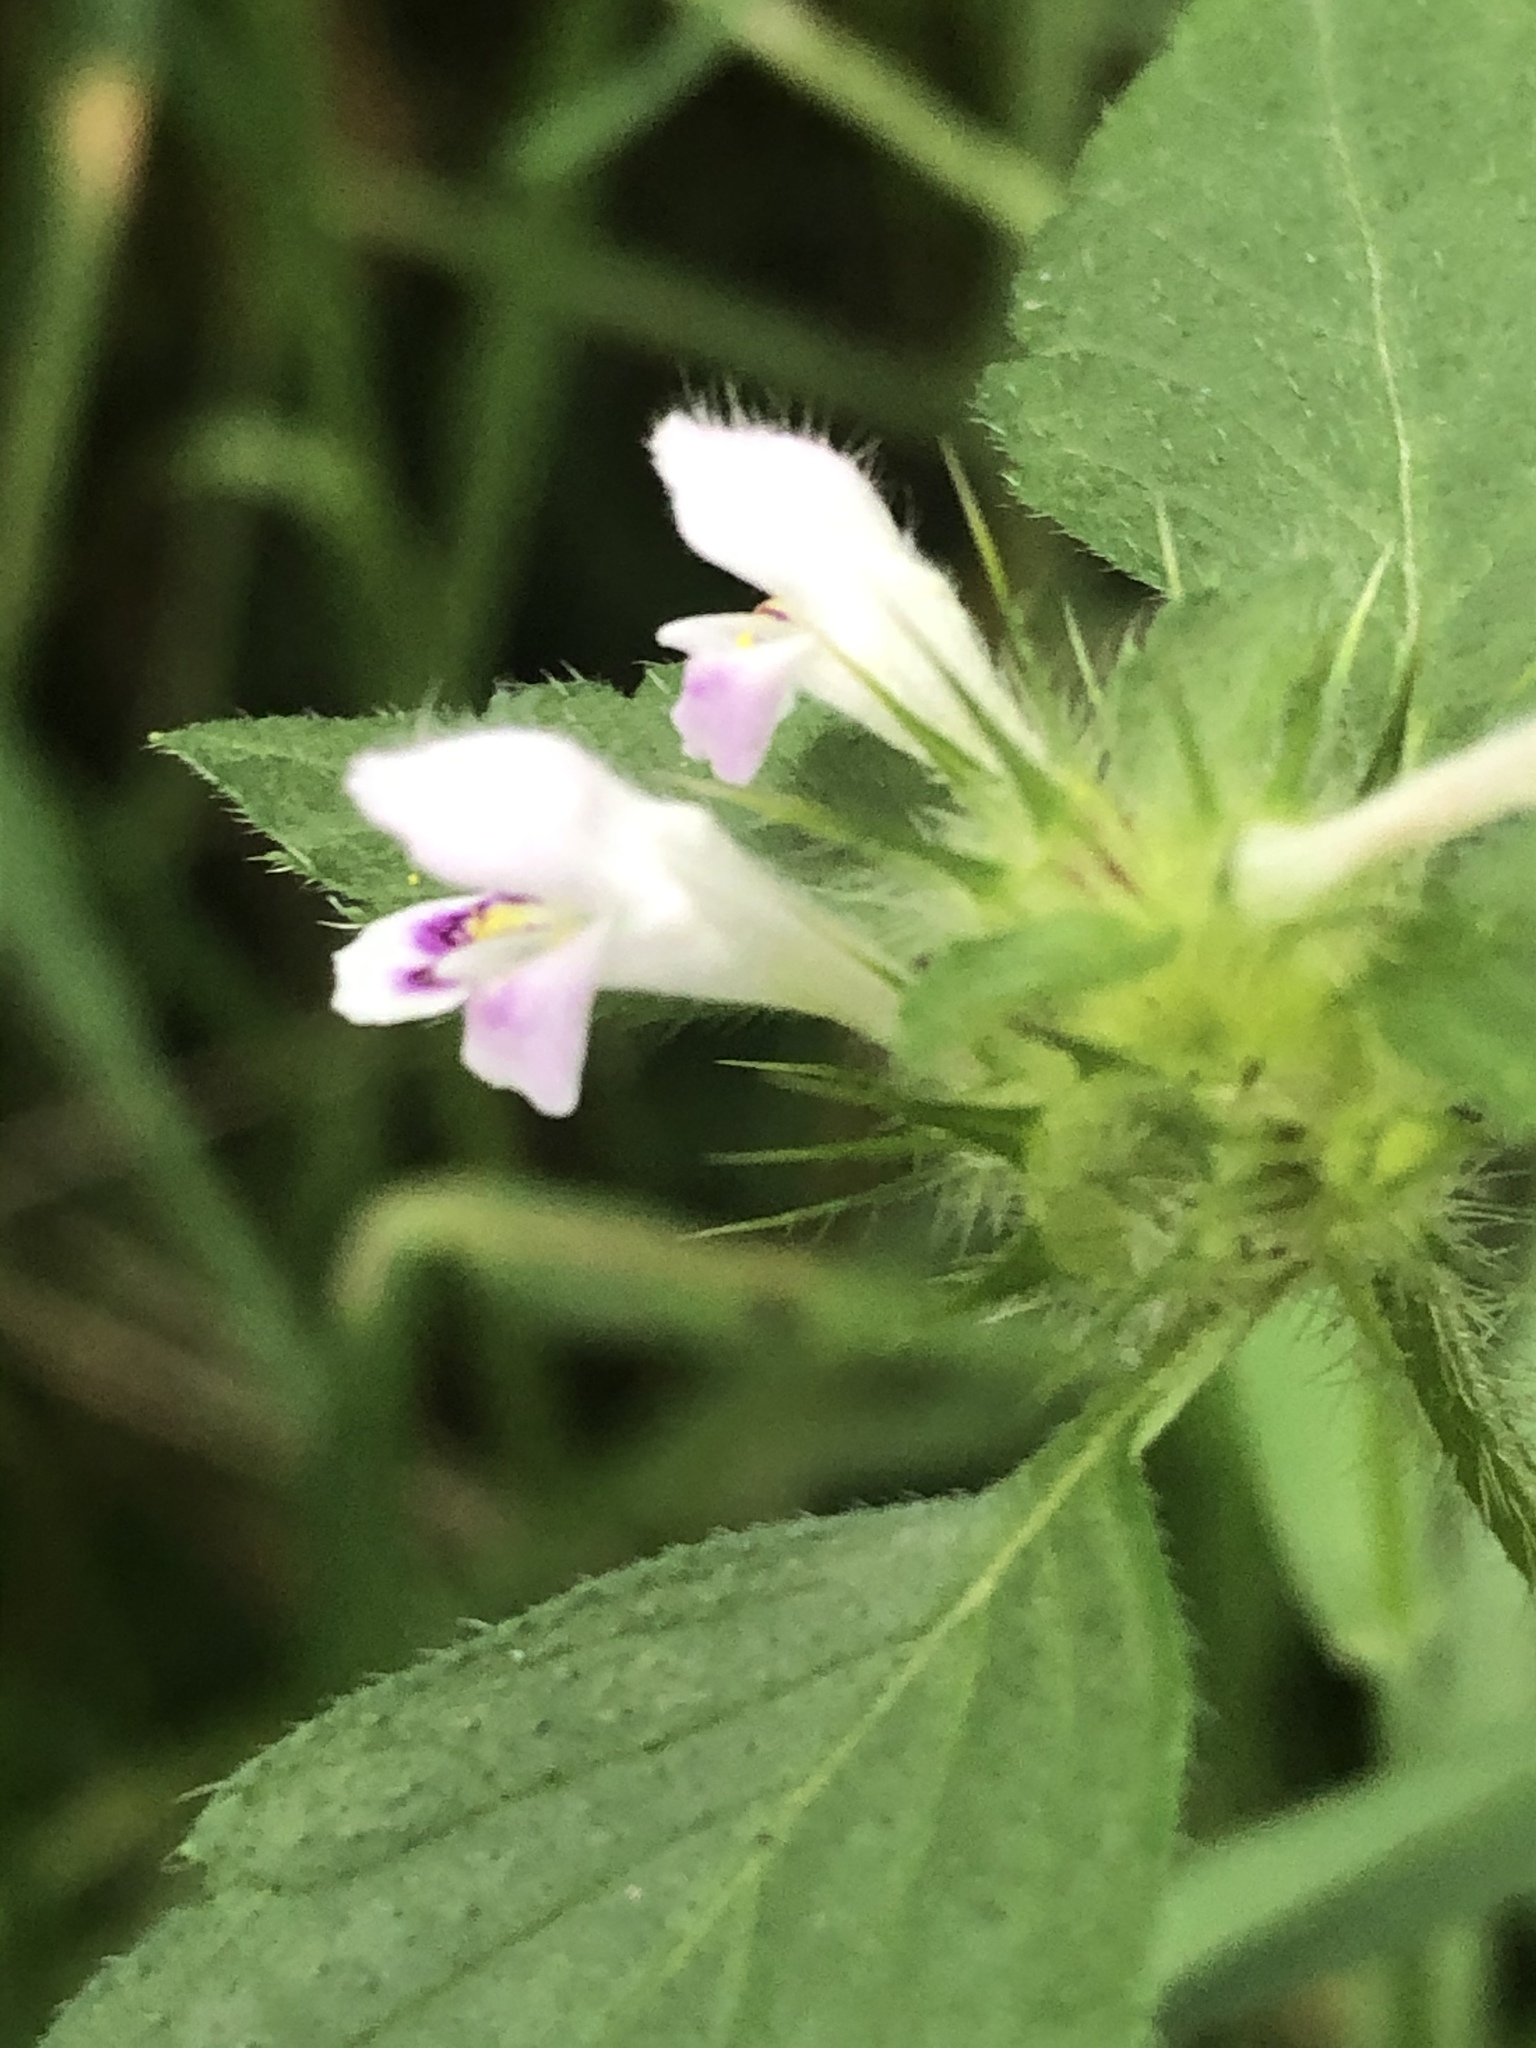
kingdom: Plantae
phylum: Tracheophyta
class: Magnoliopsida
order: Lamiales
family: Lamiaceae
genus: Galeopsis
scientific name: Galeopsis tetrahit
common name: Common hemp-nettle
